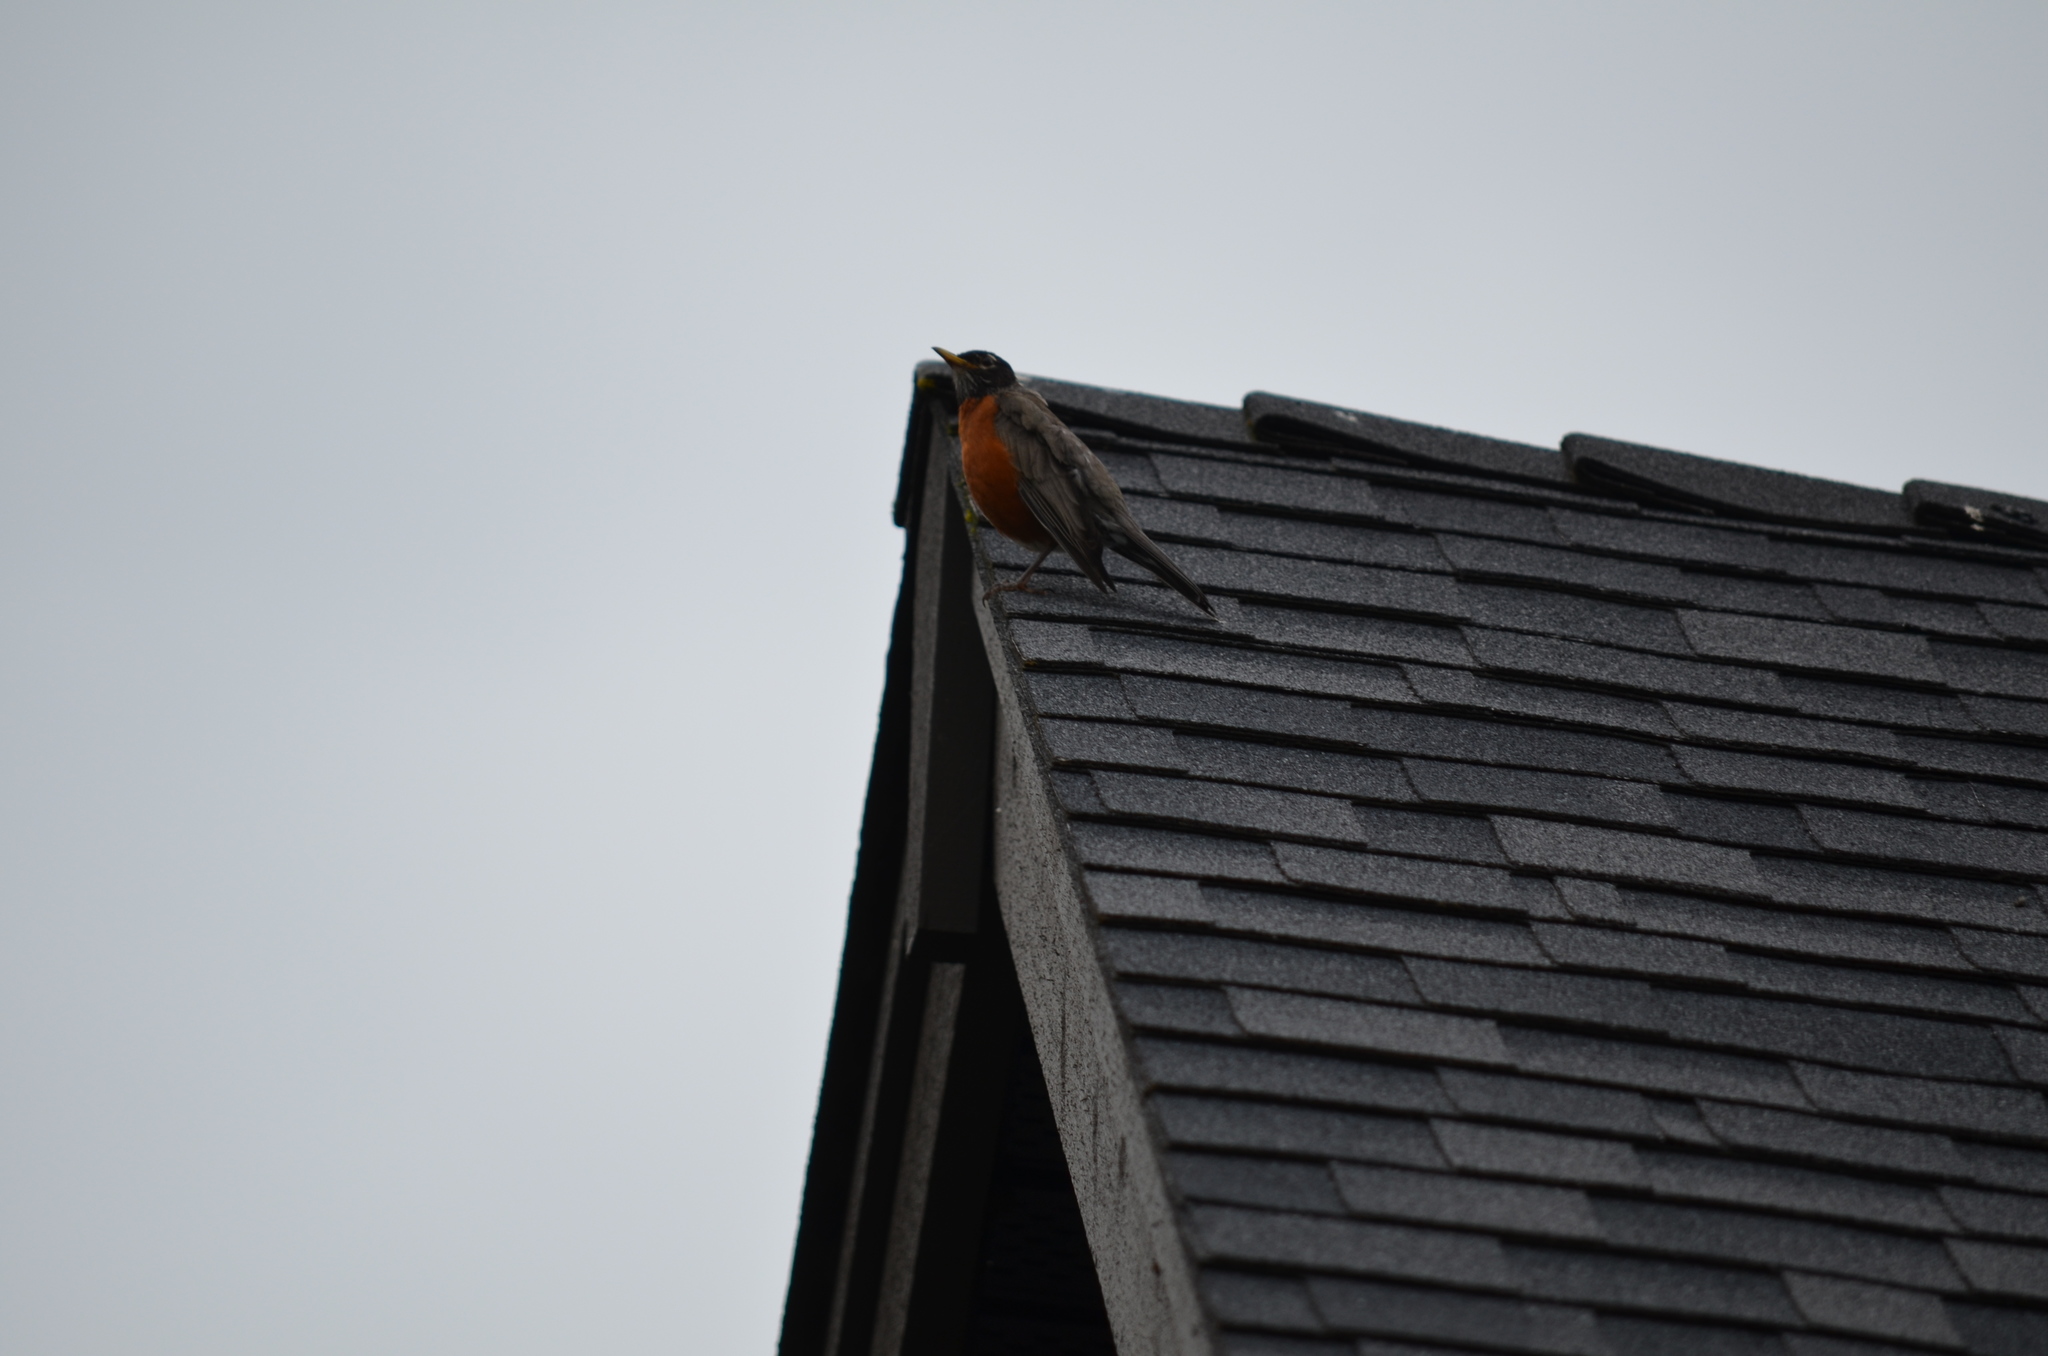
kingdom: Animalia
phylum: Chordata
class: Aves
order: Passeriformes
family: Turdidae
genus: Turdus
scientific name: Turdus migratorius
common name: American robin
